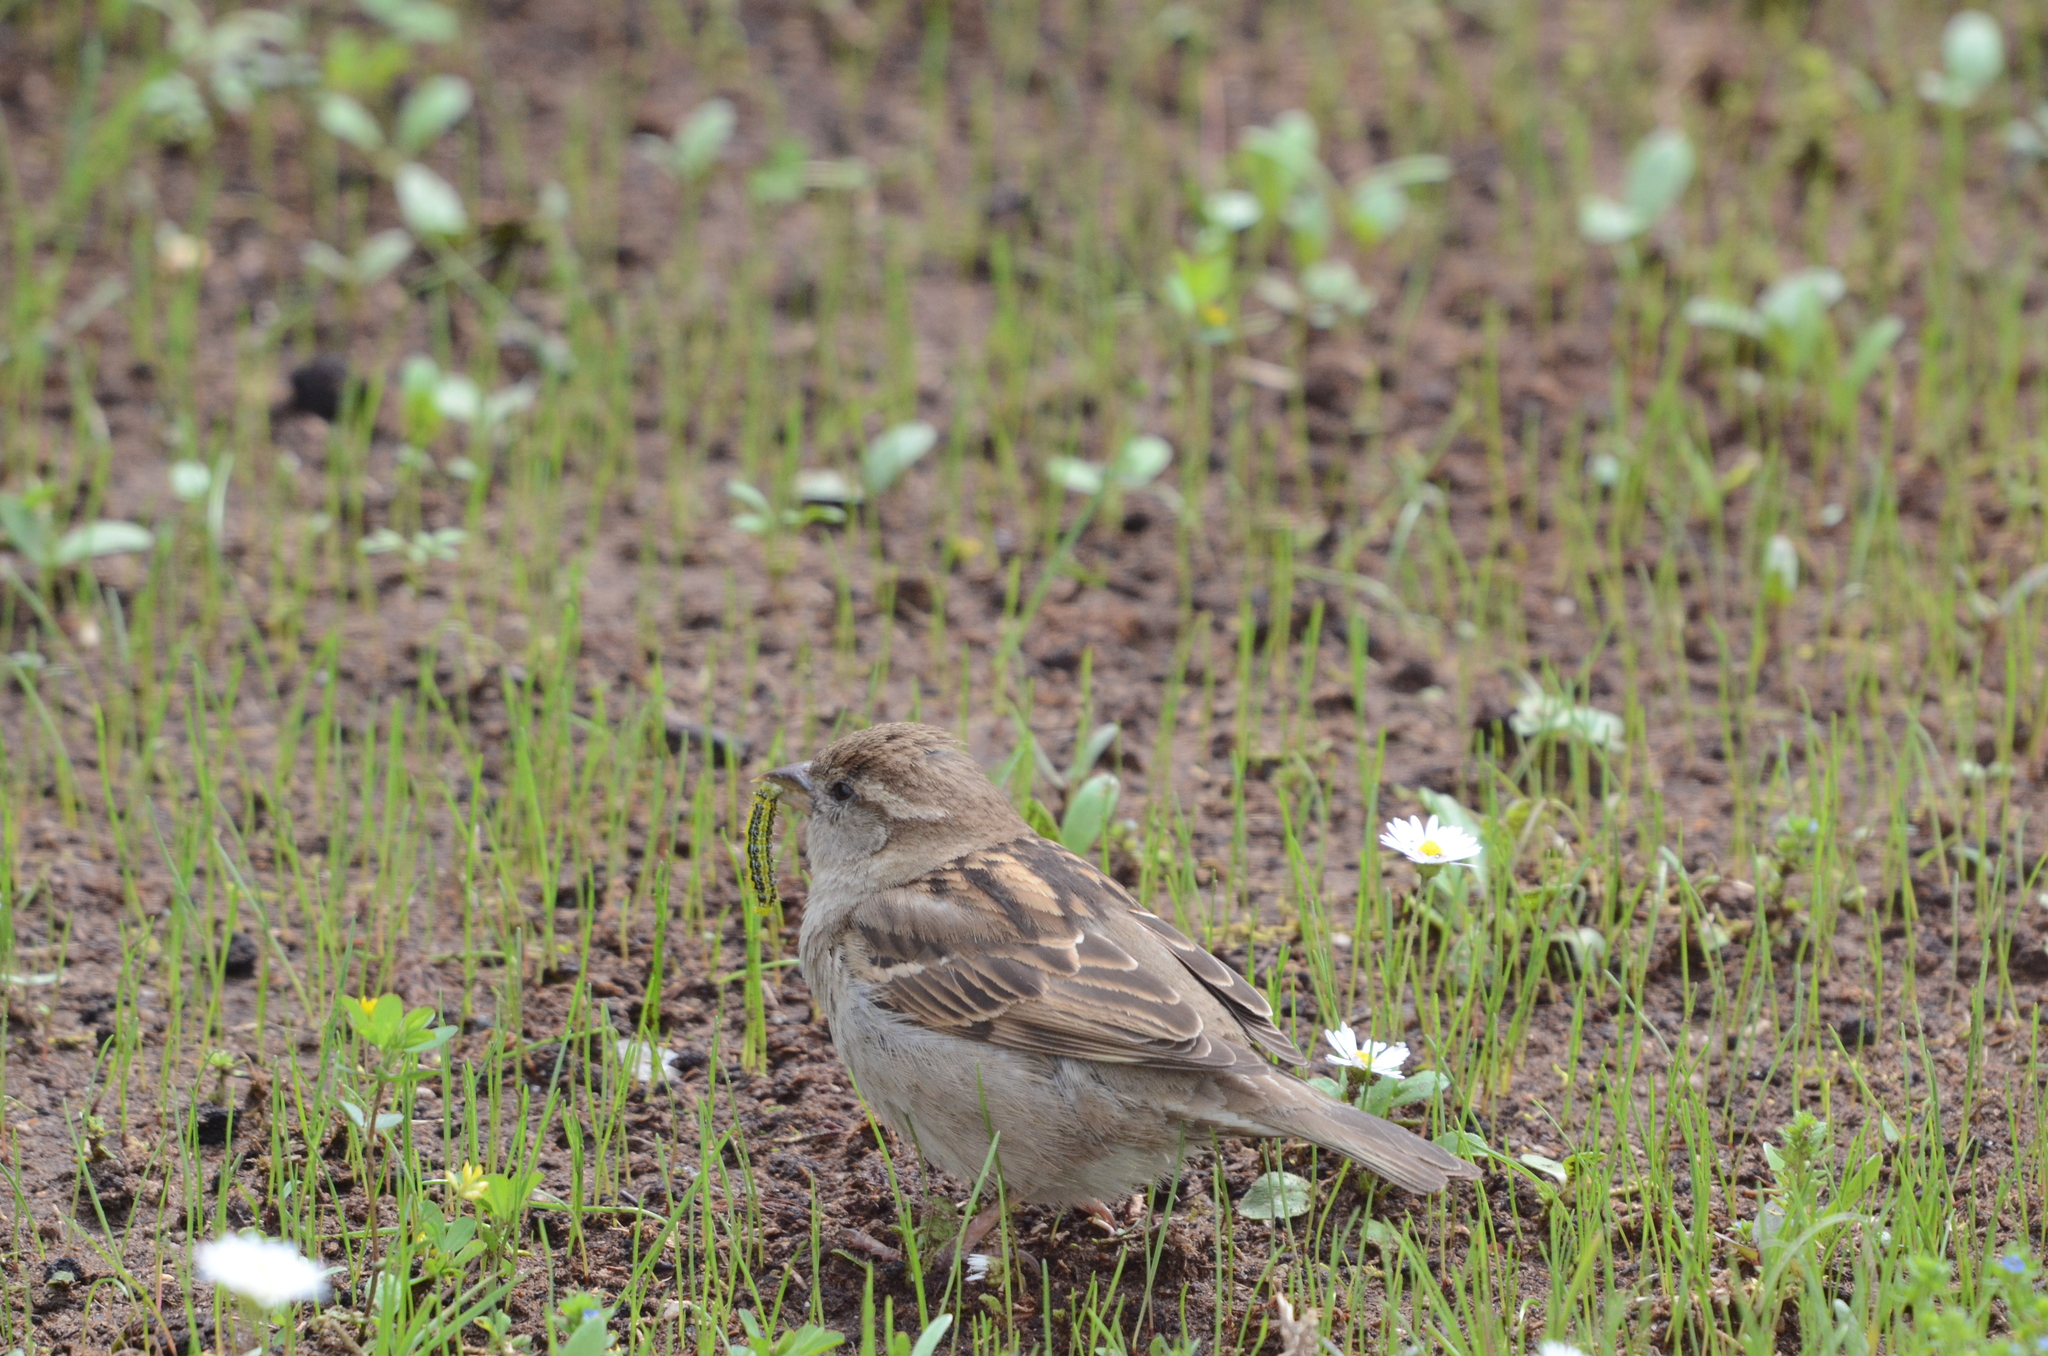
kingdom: Animalia
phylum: Chordata
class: Aves
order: Passeriformes
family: Passeridae
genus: Passer
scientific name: Passer domesticus
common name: House sparrow
